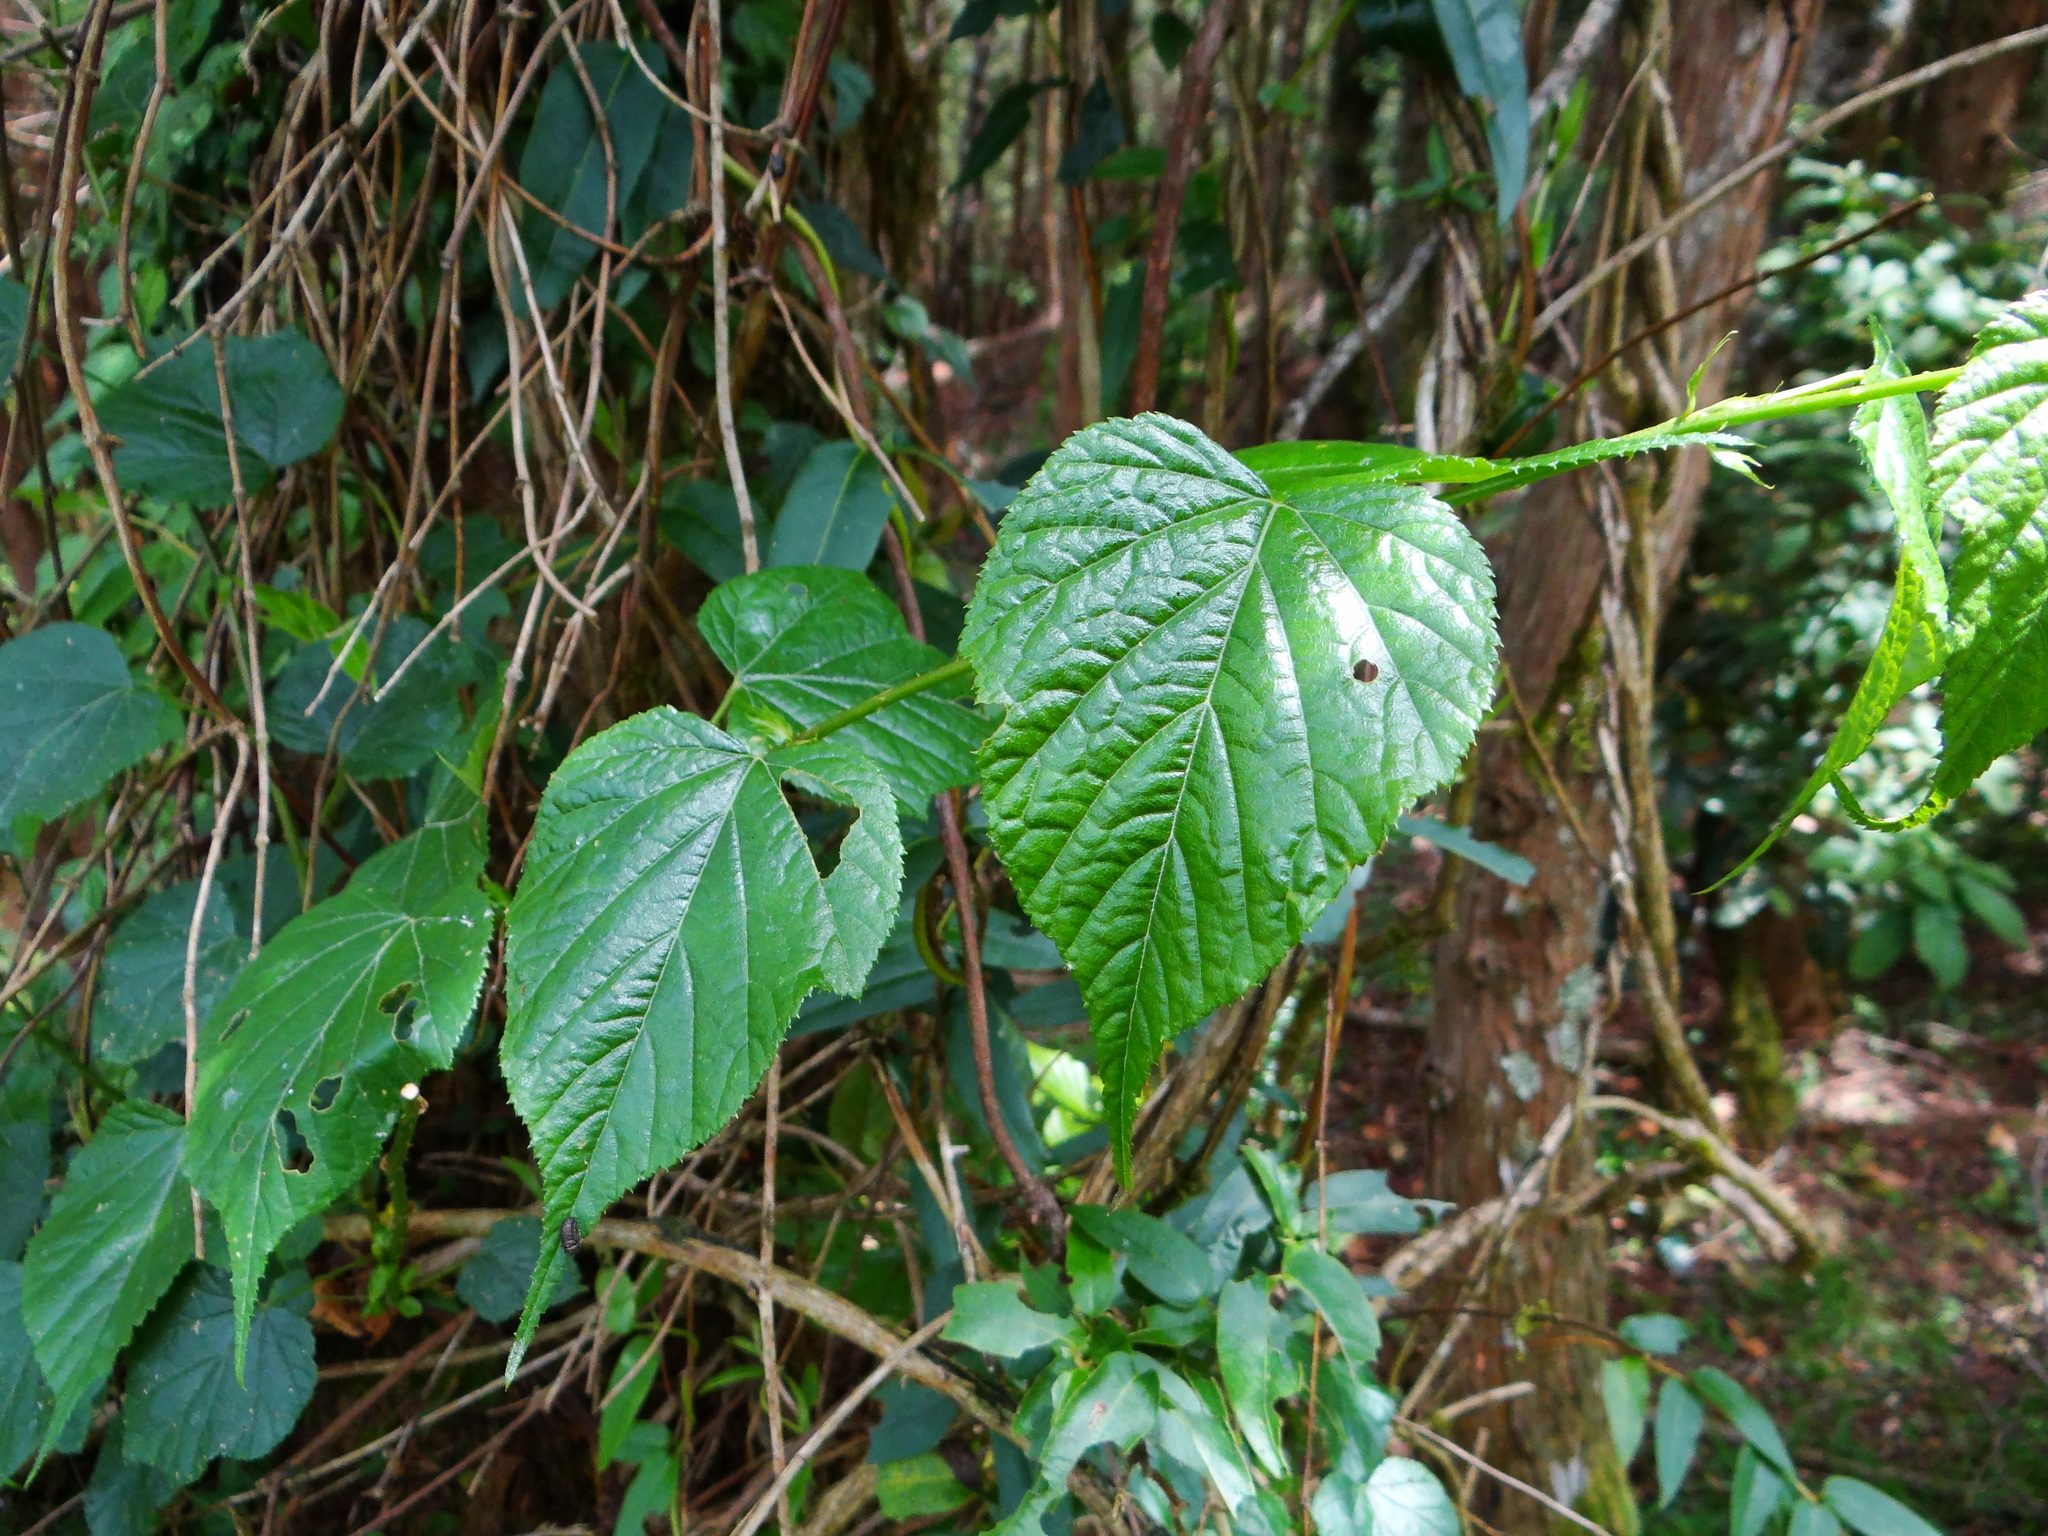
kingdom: Plantae
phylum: Tracheophyta
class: Magnoliopsida
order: Rosales
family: Rosaceae
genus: Rubus
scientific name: Rubus lambertianus
